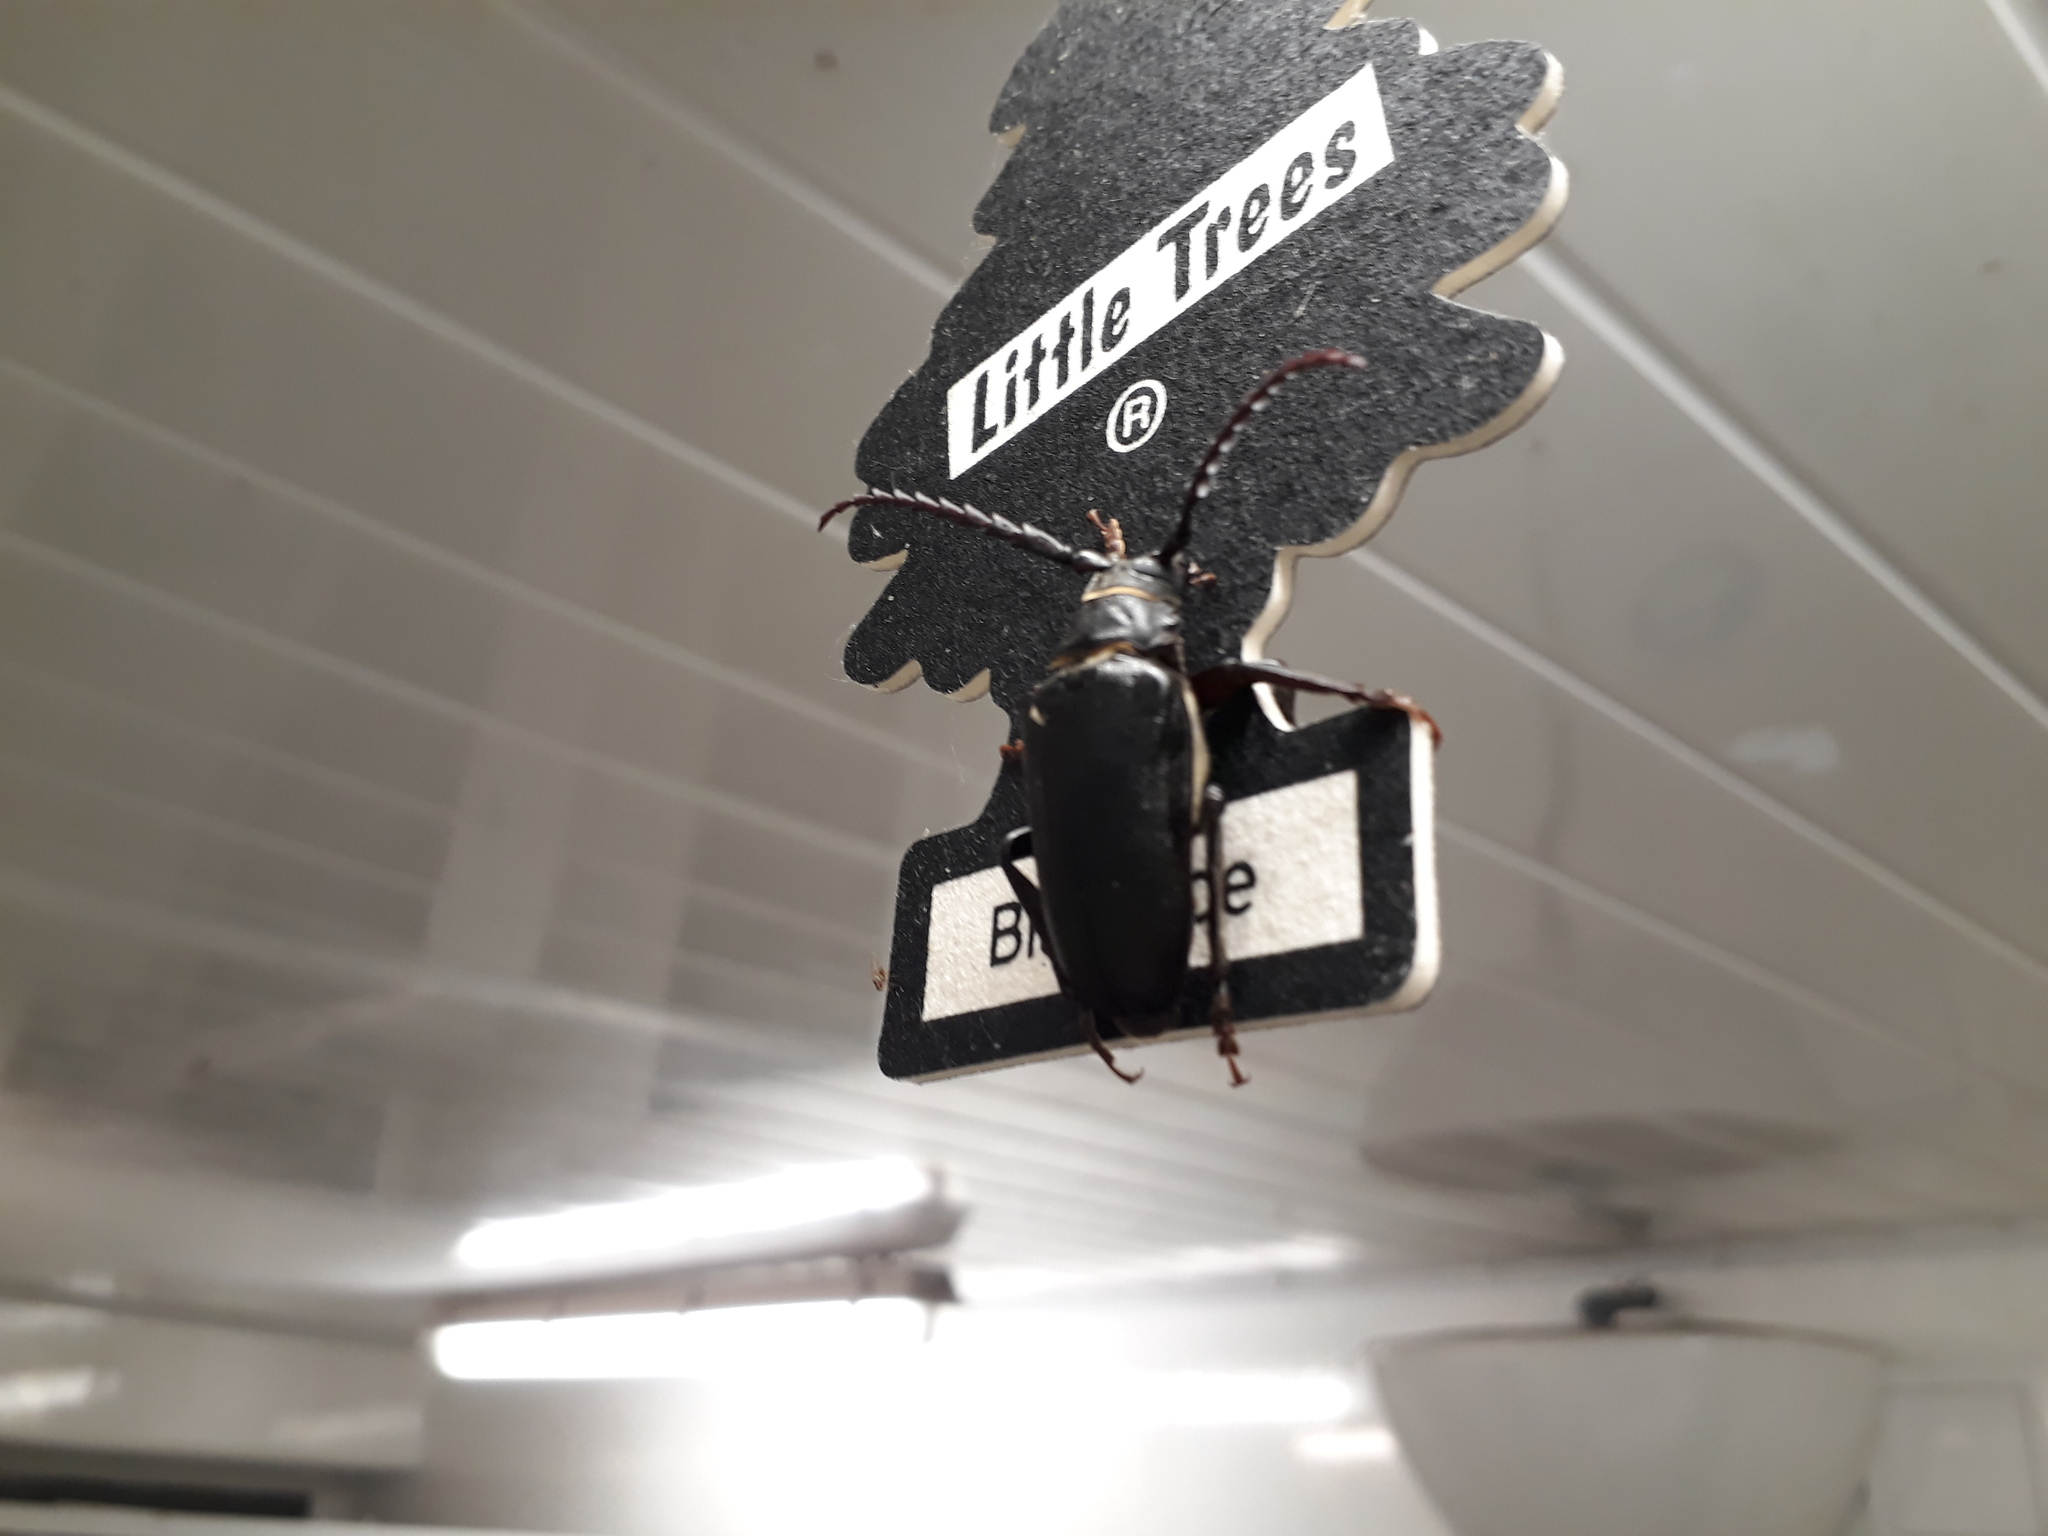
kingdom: Animalia
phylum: Arthropoda
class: Insecta
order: Coleoptera
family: Cerambycidae
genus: Prionus
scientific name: Prionus coriarius
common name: Tanner beetle
